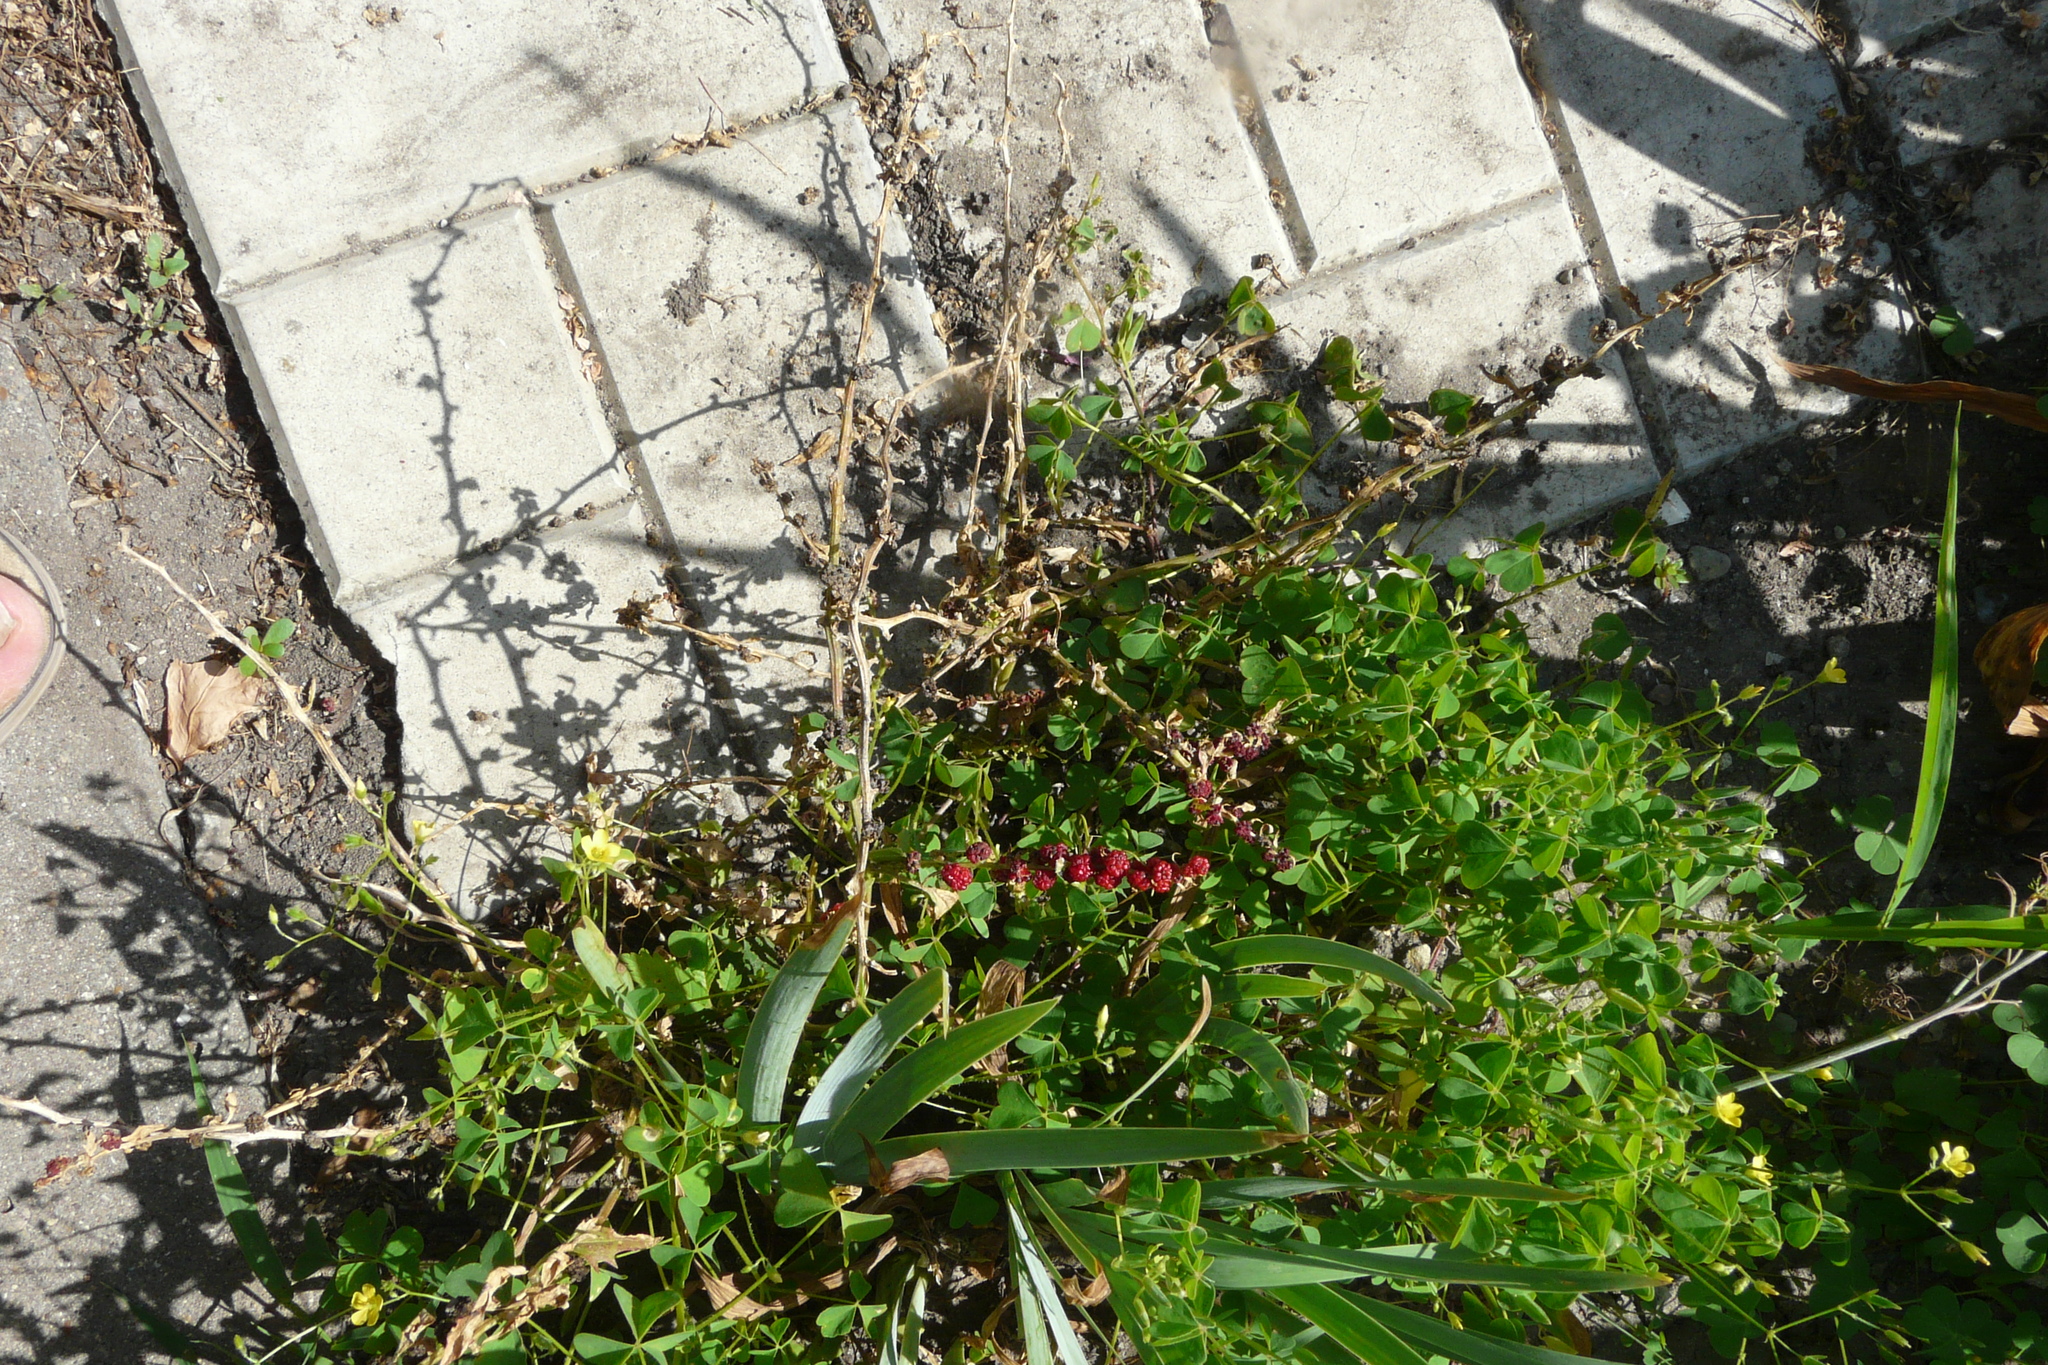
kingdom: Plantae
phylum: Tracheophyta
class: Magnoliopsida
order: Caryophyllales
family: Amaranthaceae
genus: Blitum
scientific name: Blitum virgatum
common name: Strawberry goosefoot
